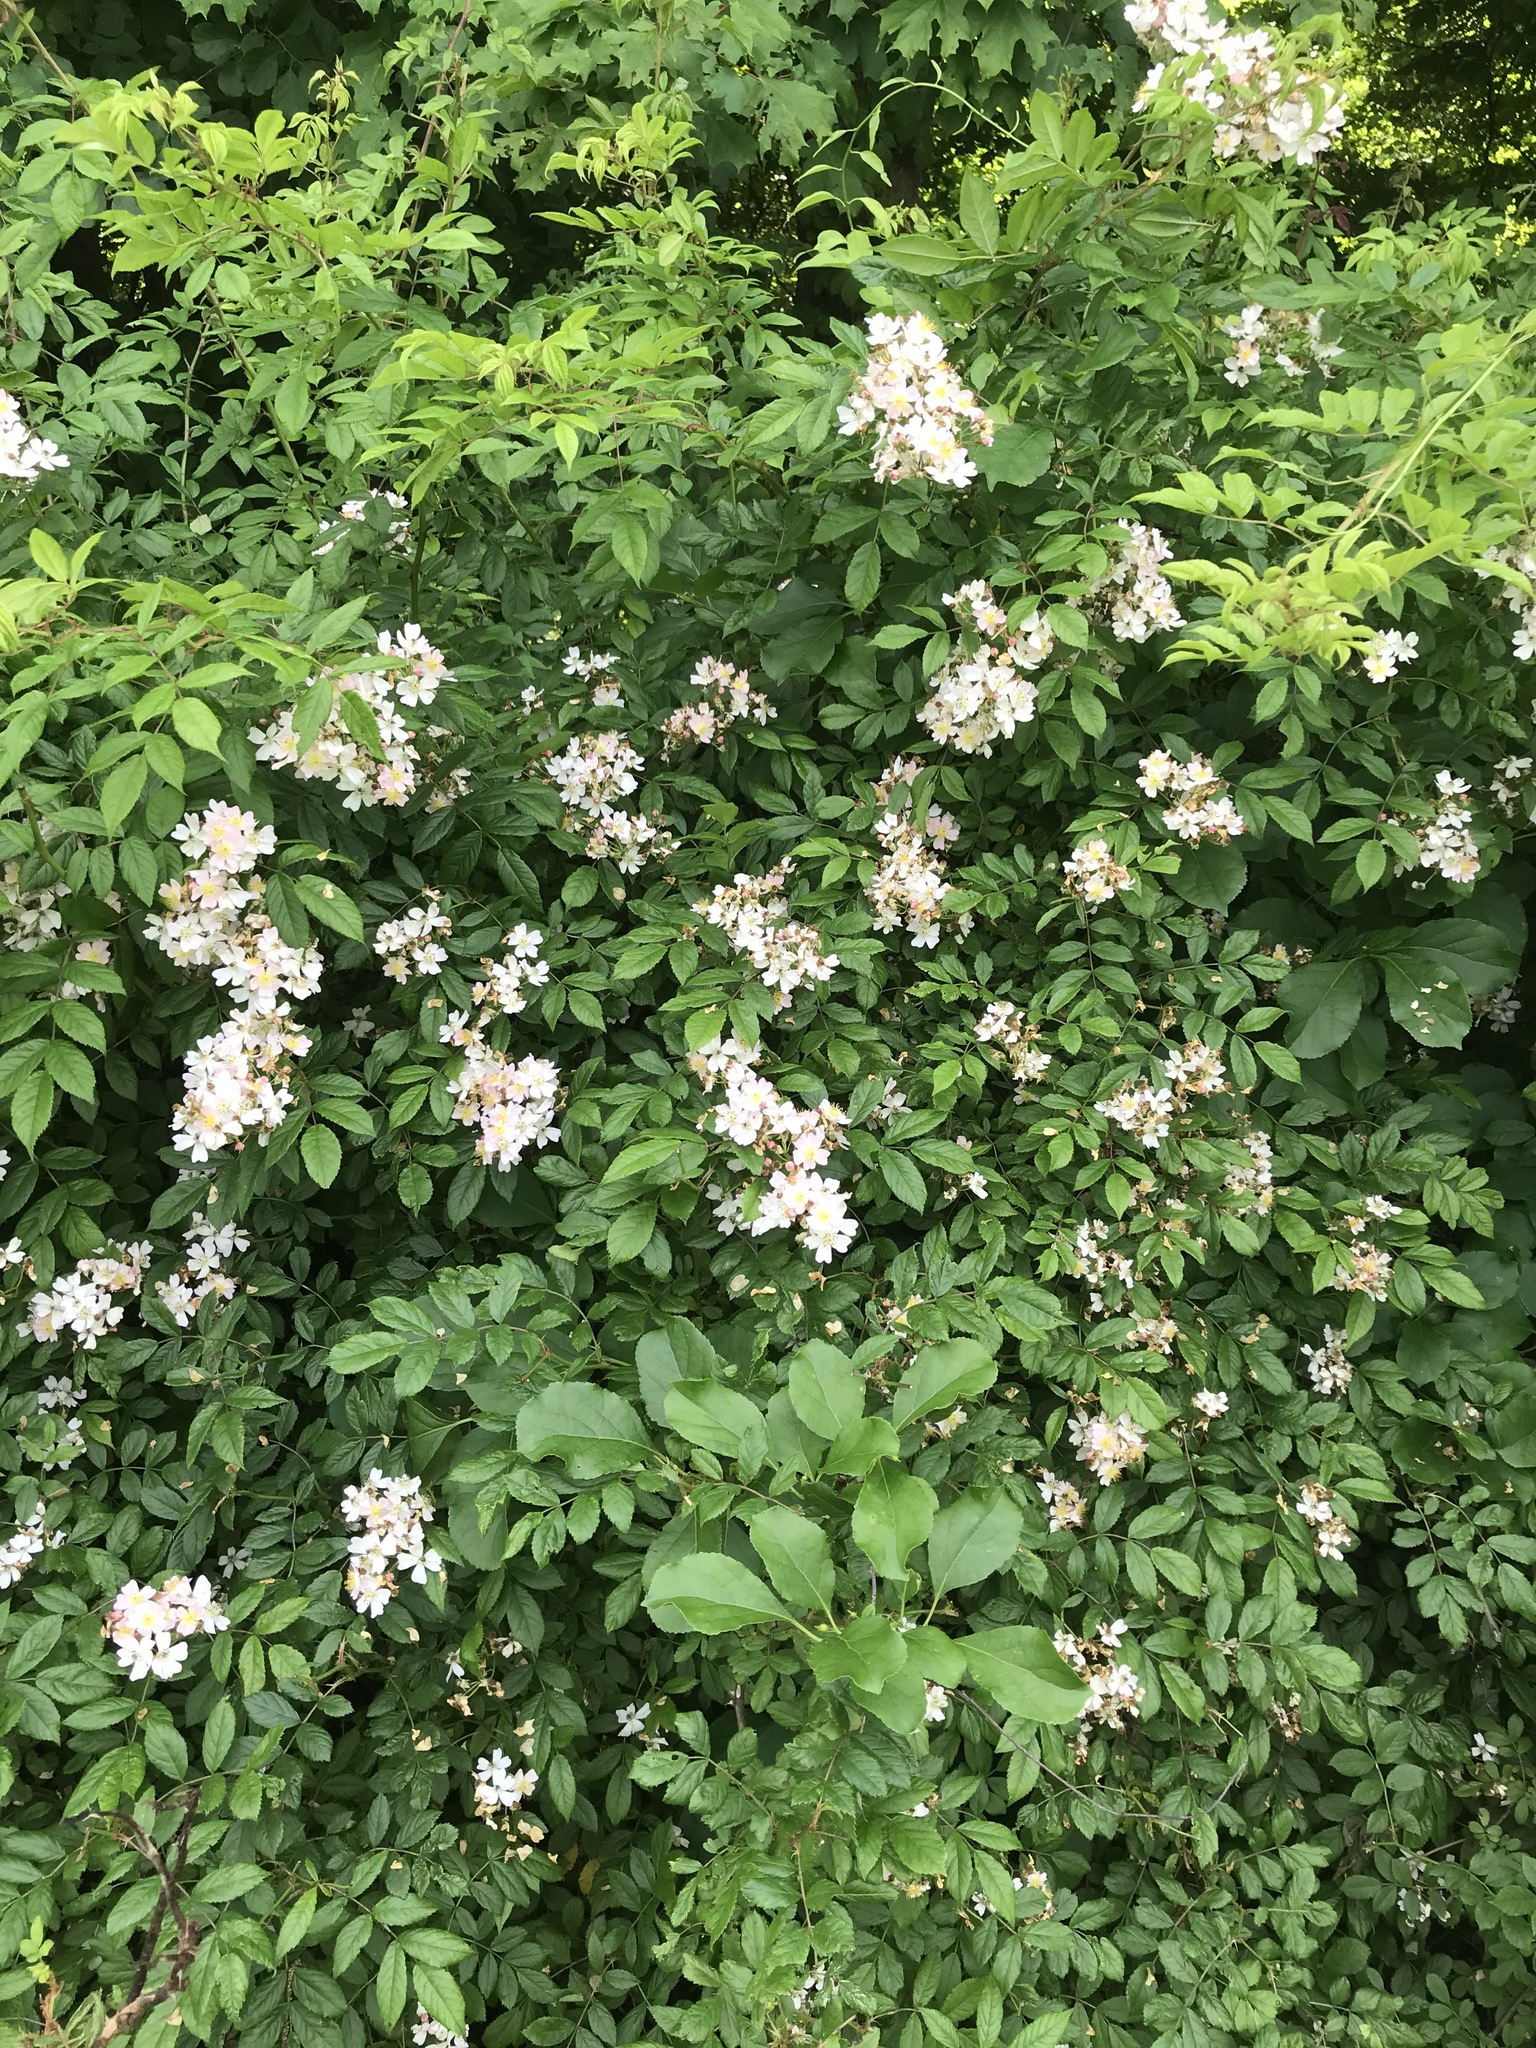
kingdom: Plantae
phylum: Tracheophyta
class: Magnoliopsida
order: Rosales
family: Rosaceae
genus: Rosa
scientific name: Rosa multiflora
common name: Multiflora rose
